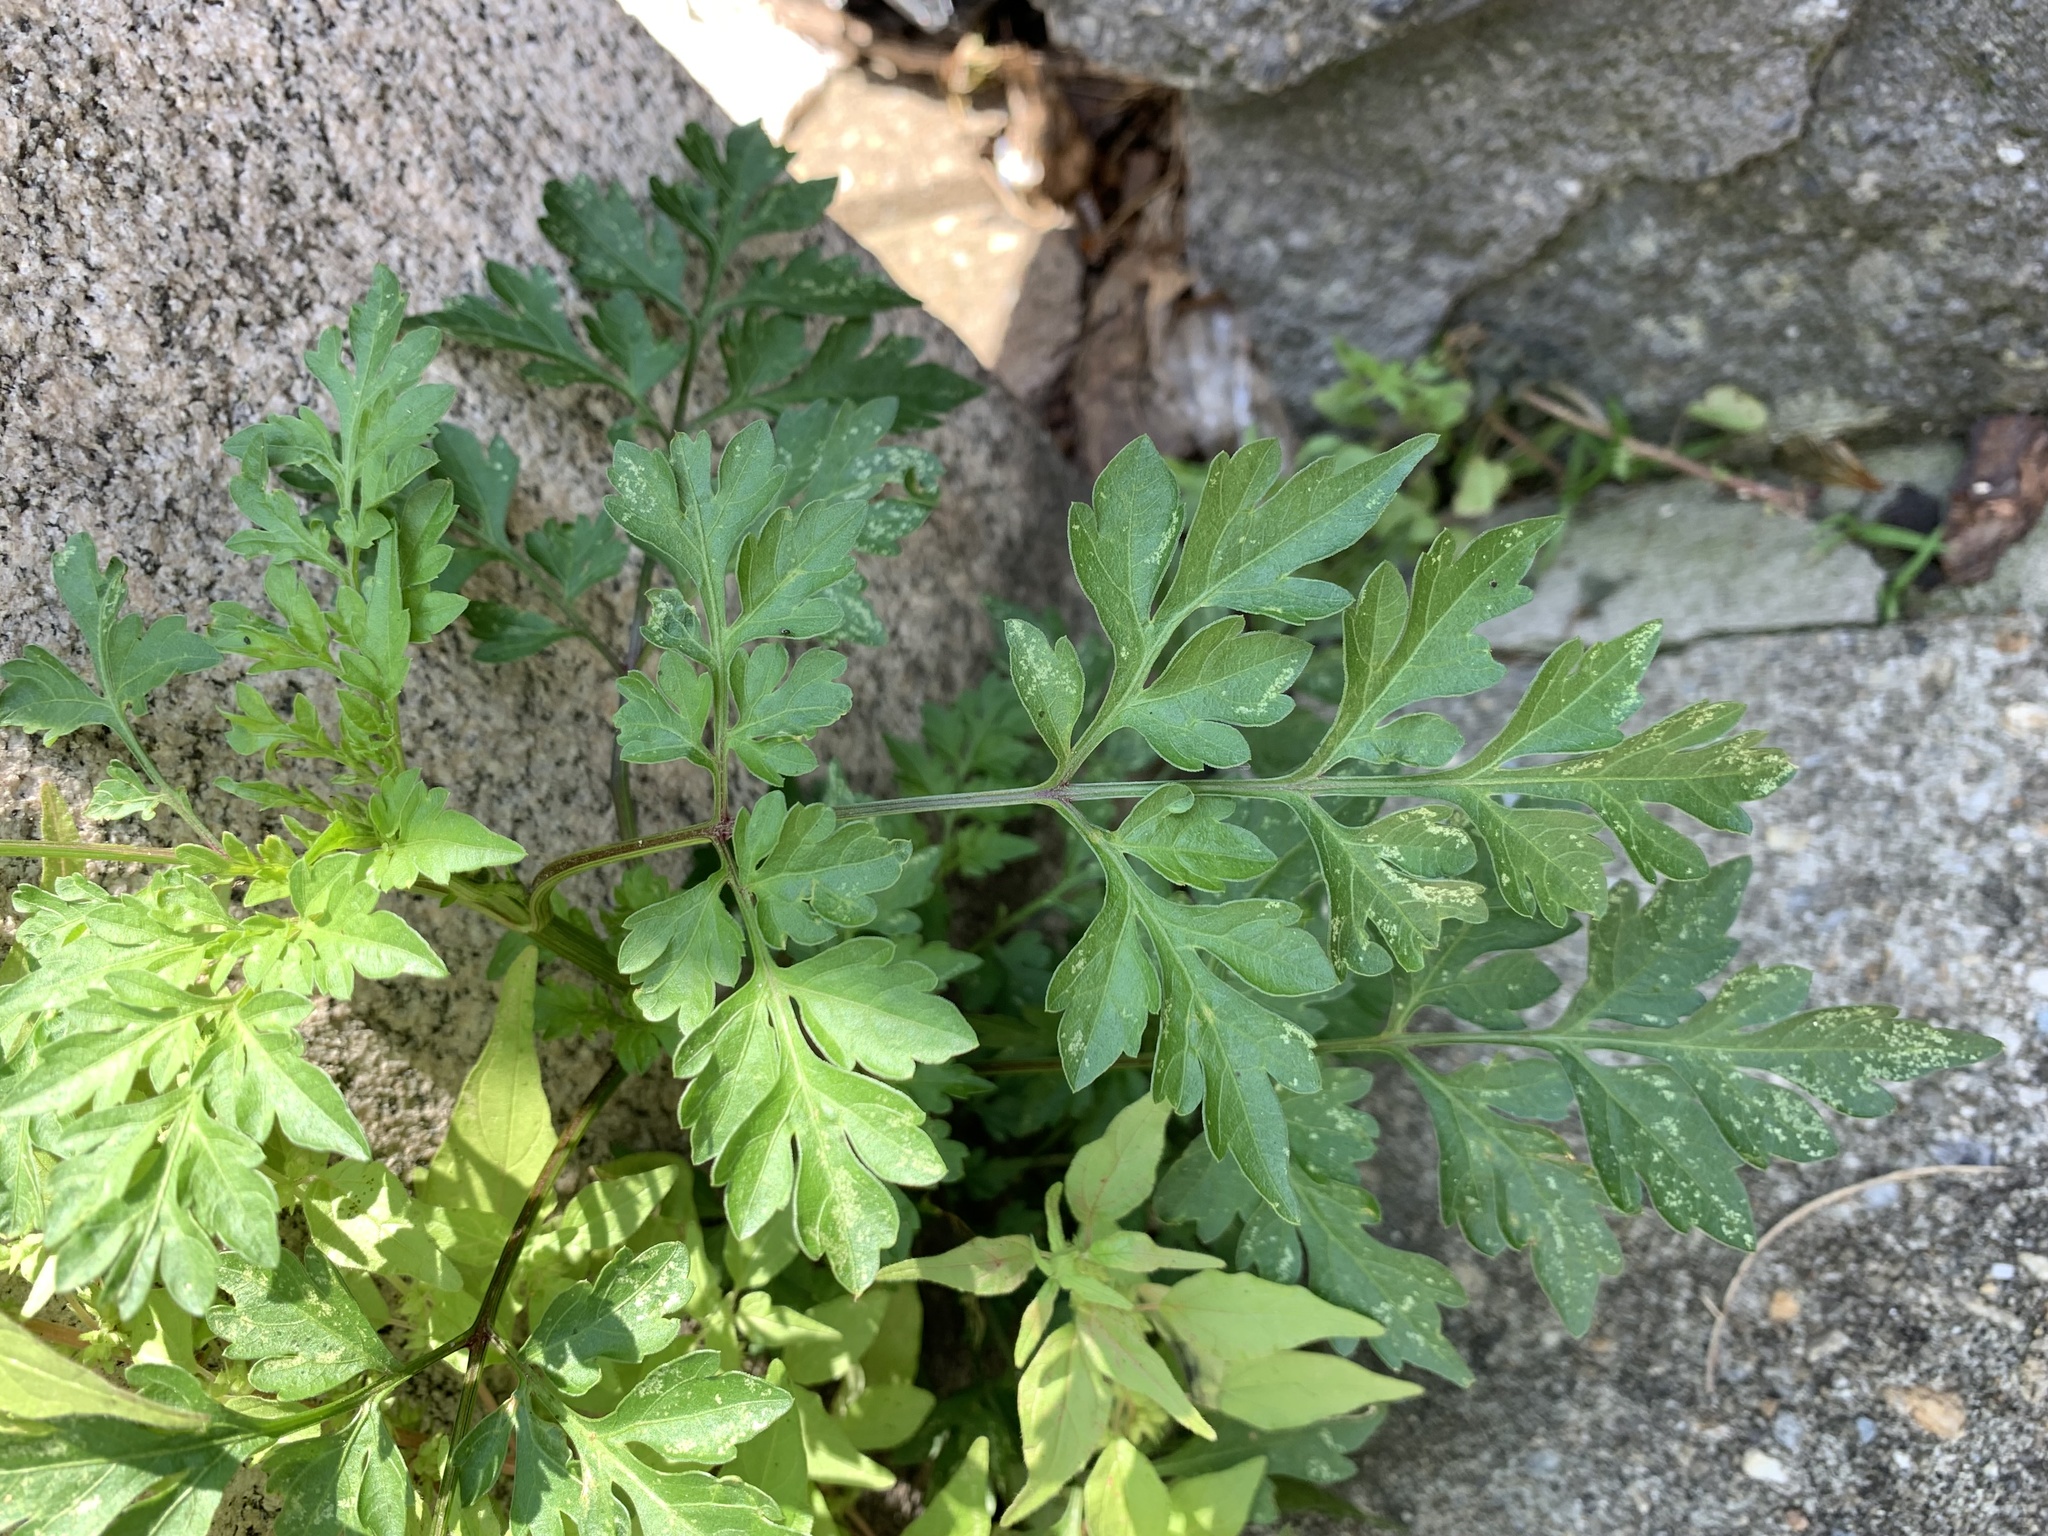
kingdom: Plantae
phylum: Tracheophyta
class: Magnoliopsida
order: Asterales
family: Asteraceae
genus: Bidens
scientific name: Bidens bipinnata
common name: Spanish-needles
